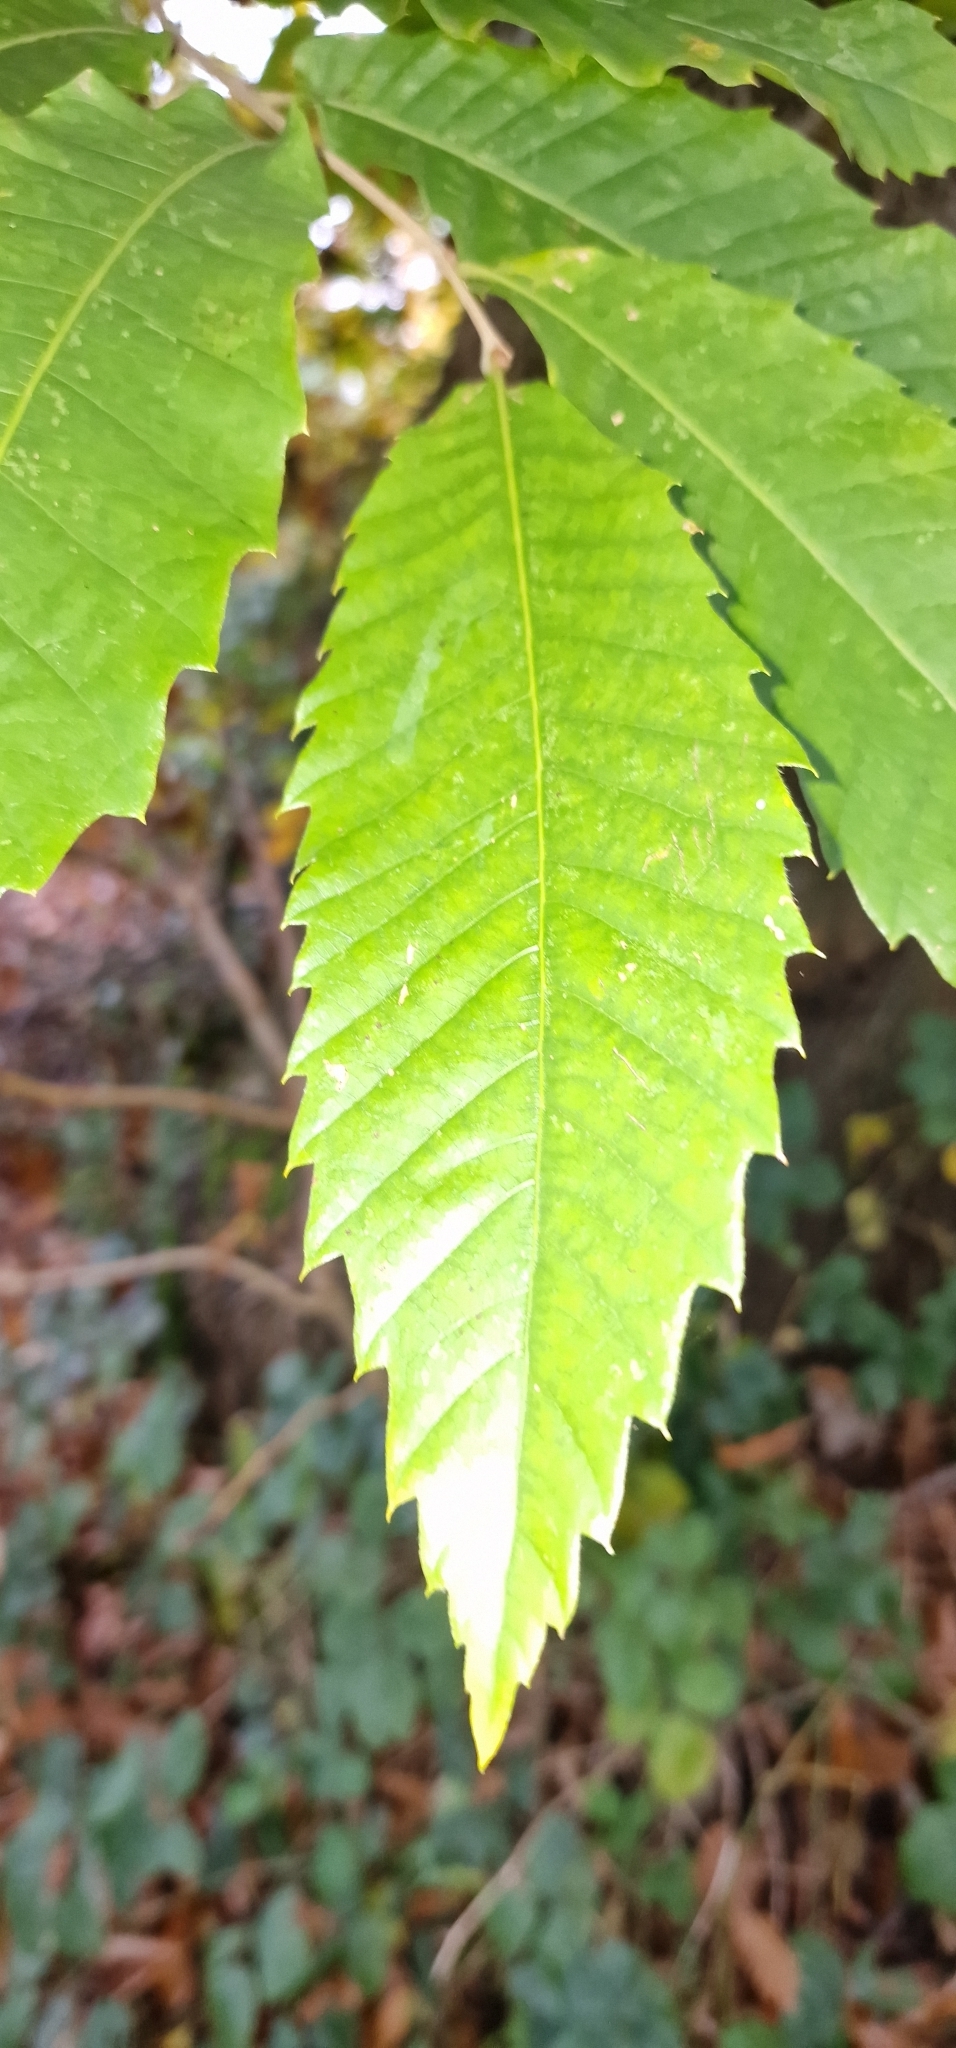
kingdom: Plantae
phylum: Tracheophyta
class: Magnoliopsida
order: Fagales
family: Fagaceae
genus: Castanea
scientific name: Castanea sativa
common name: Sweet chestnut
